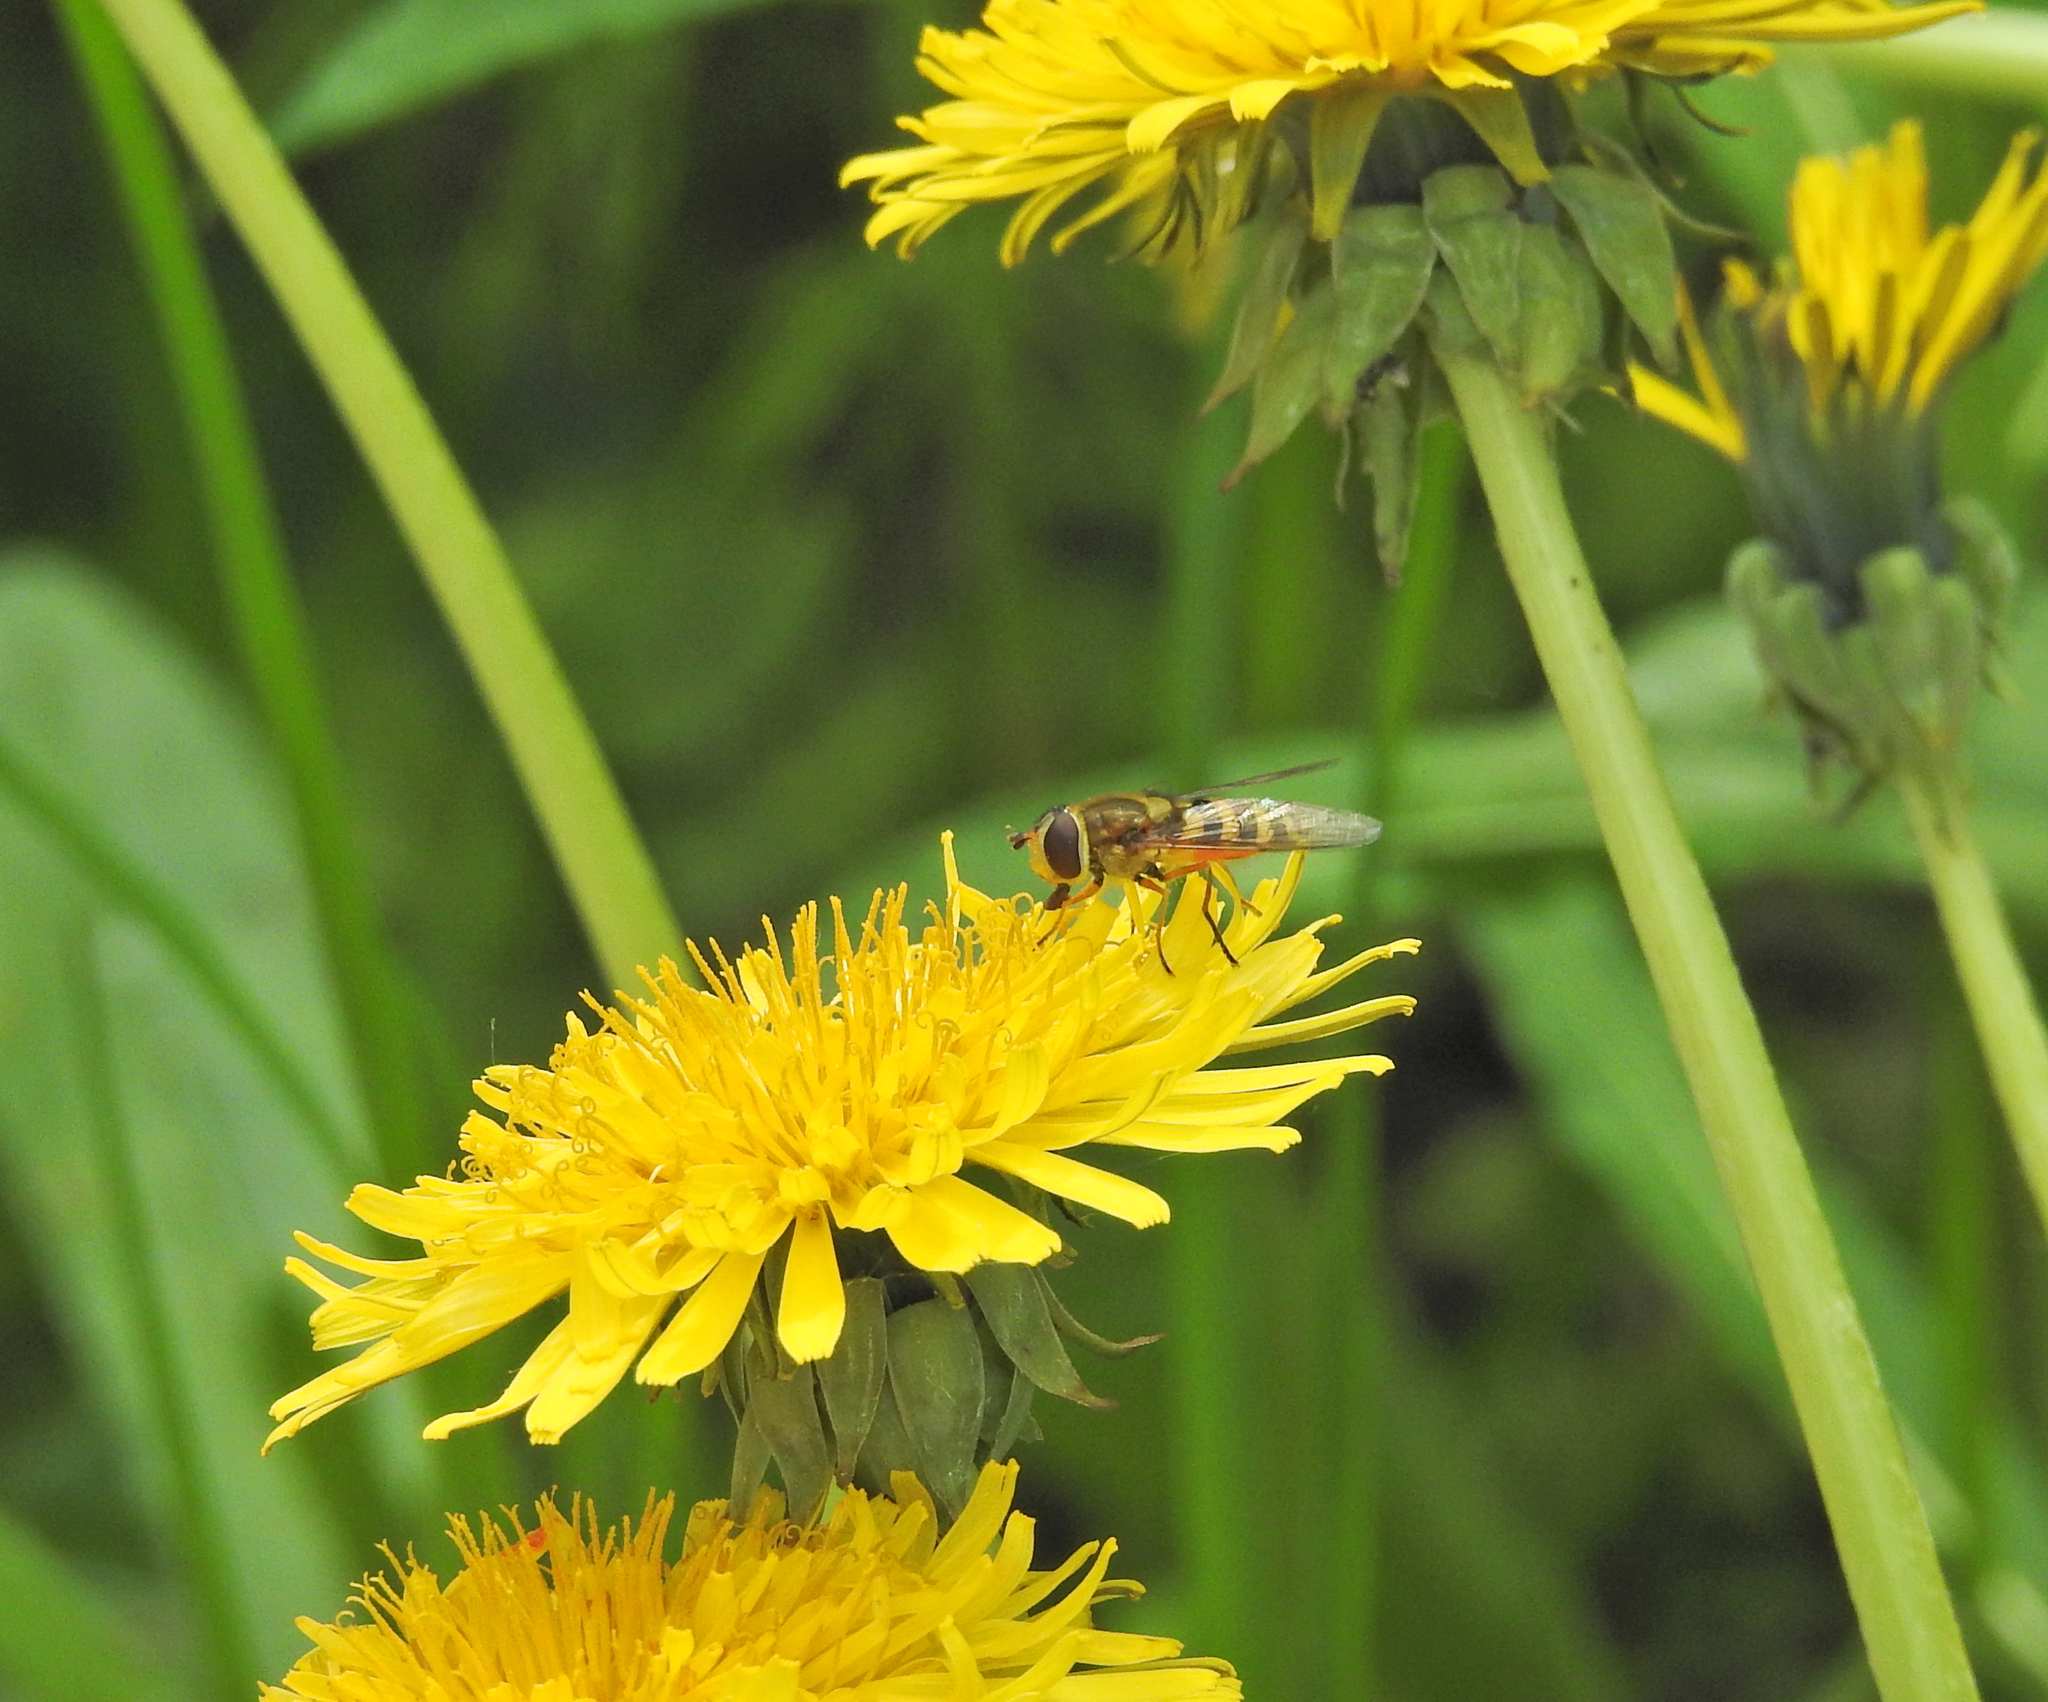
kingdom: Animalia
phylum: Arthropoda
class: Insecta
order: Diptera
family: Syrphidae
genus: Syrphus
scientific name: Syrphus ribesii
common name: Common flower fly
